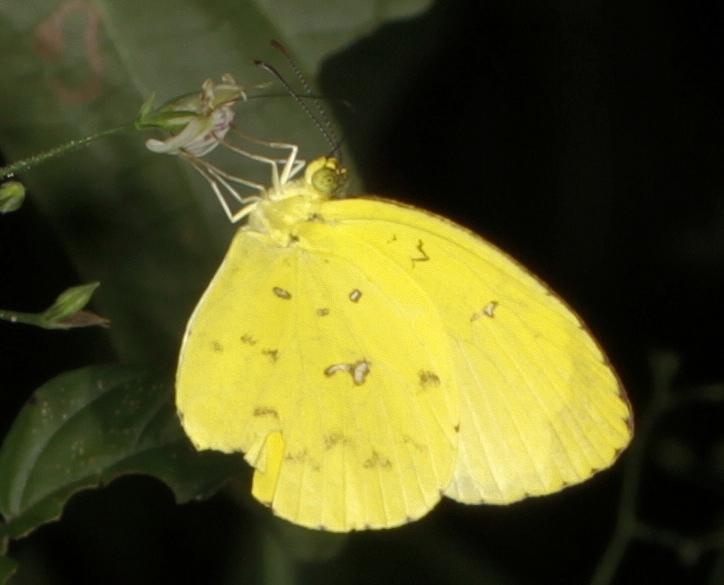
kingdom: Animalia
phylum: Arthropoda
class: Insecta
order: Lepidoptera
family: Pieridae
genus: Eurema
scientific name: Eurema floricola
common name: Malagasy grass yellow
